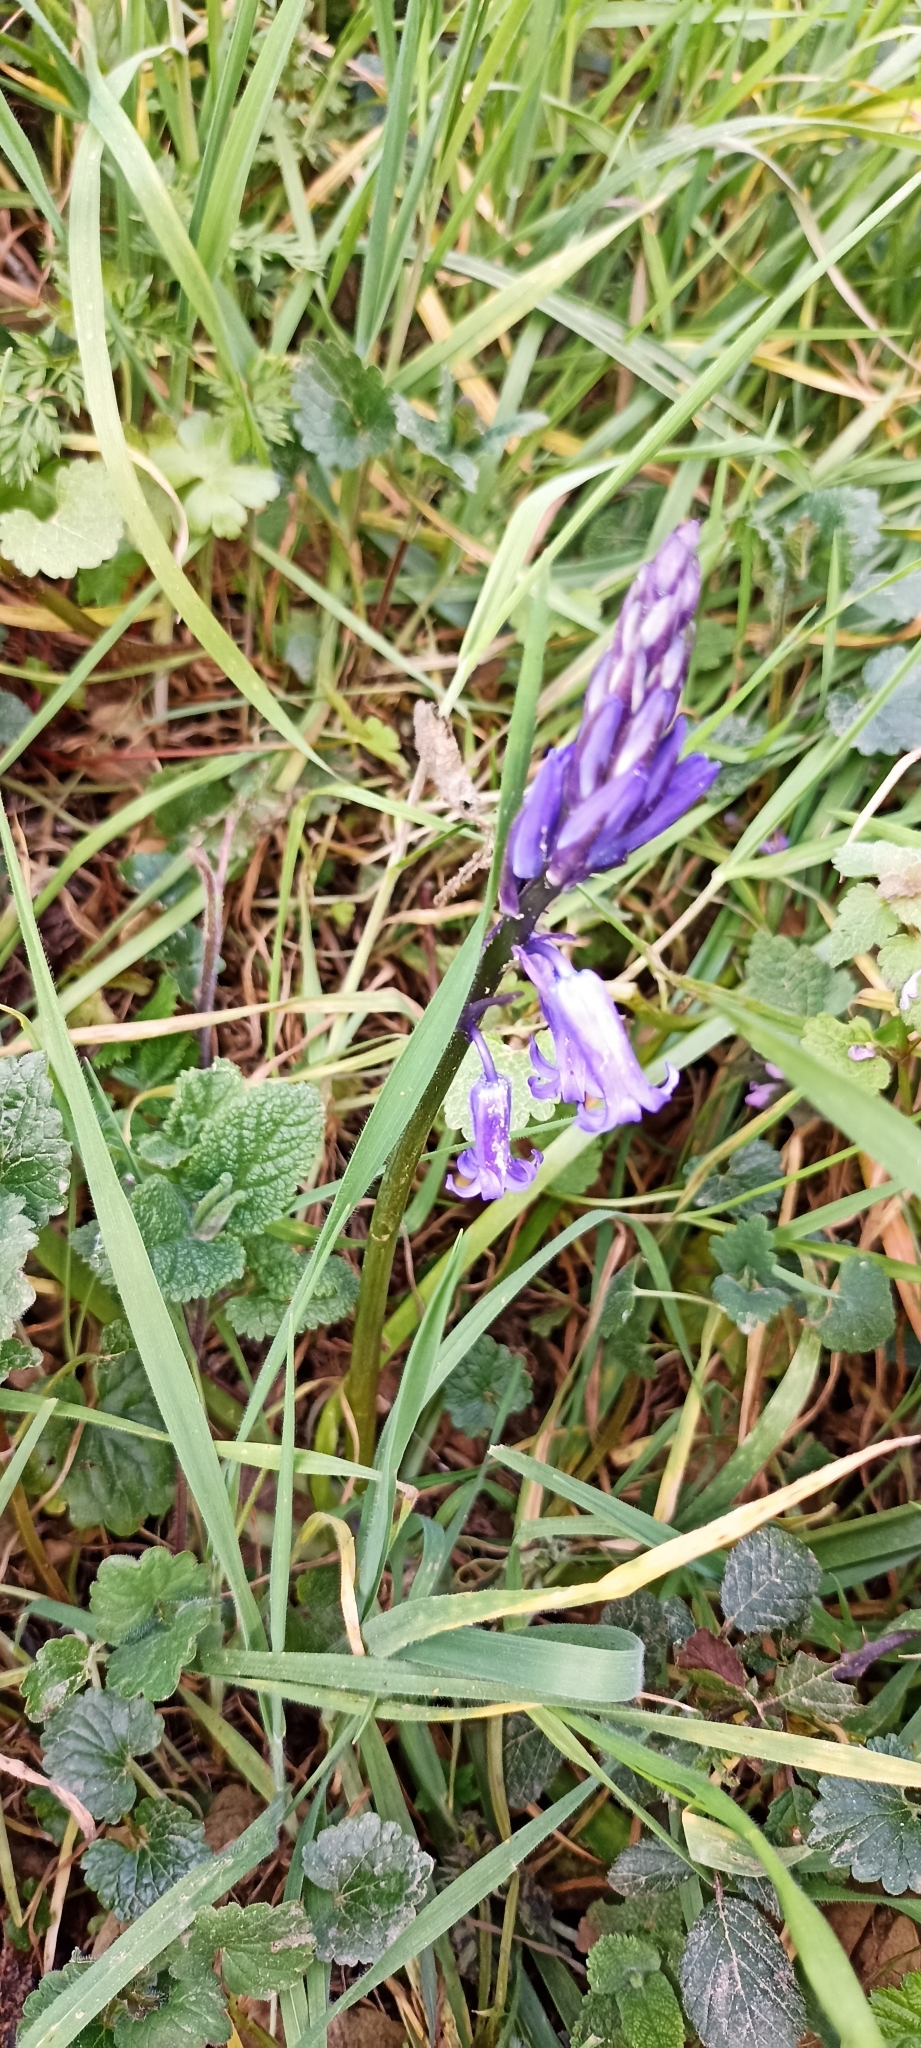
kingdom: Plantae
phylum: Tracheophyta
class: Liliopsida
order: Asparagales
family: Asparagaceae
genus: Hyacinthoides
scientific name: Hyacinthoides non-scripta
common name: Bluebell
